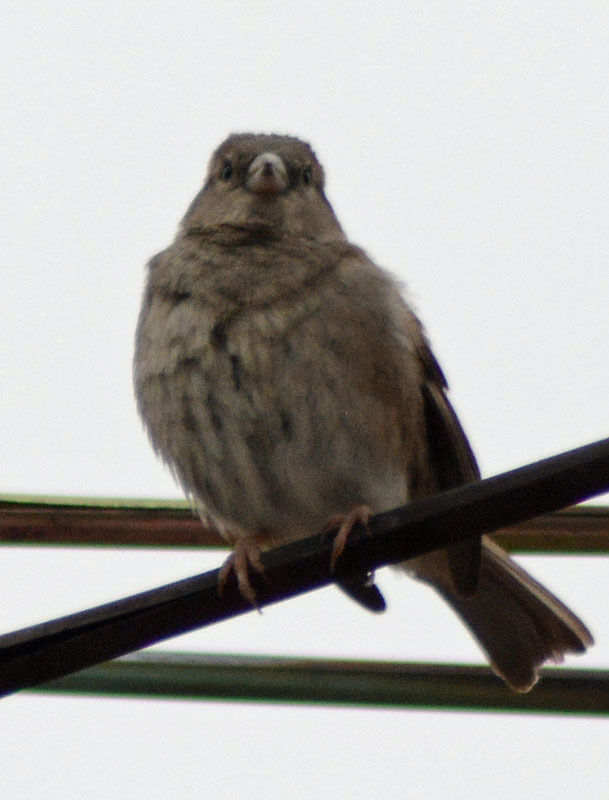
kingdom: Animalia
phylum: Chordata
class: Aves
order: Passeriformes
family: Passeridae
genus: Passer
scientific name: Passer domesticus
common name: House sparrow
